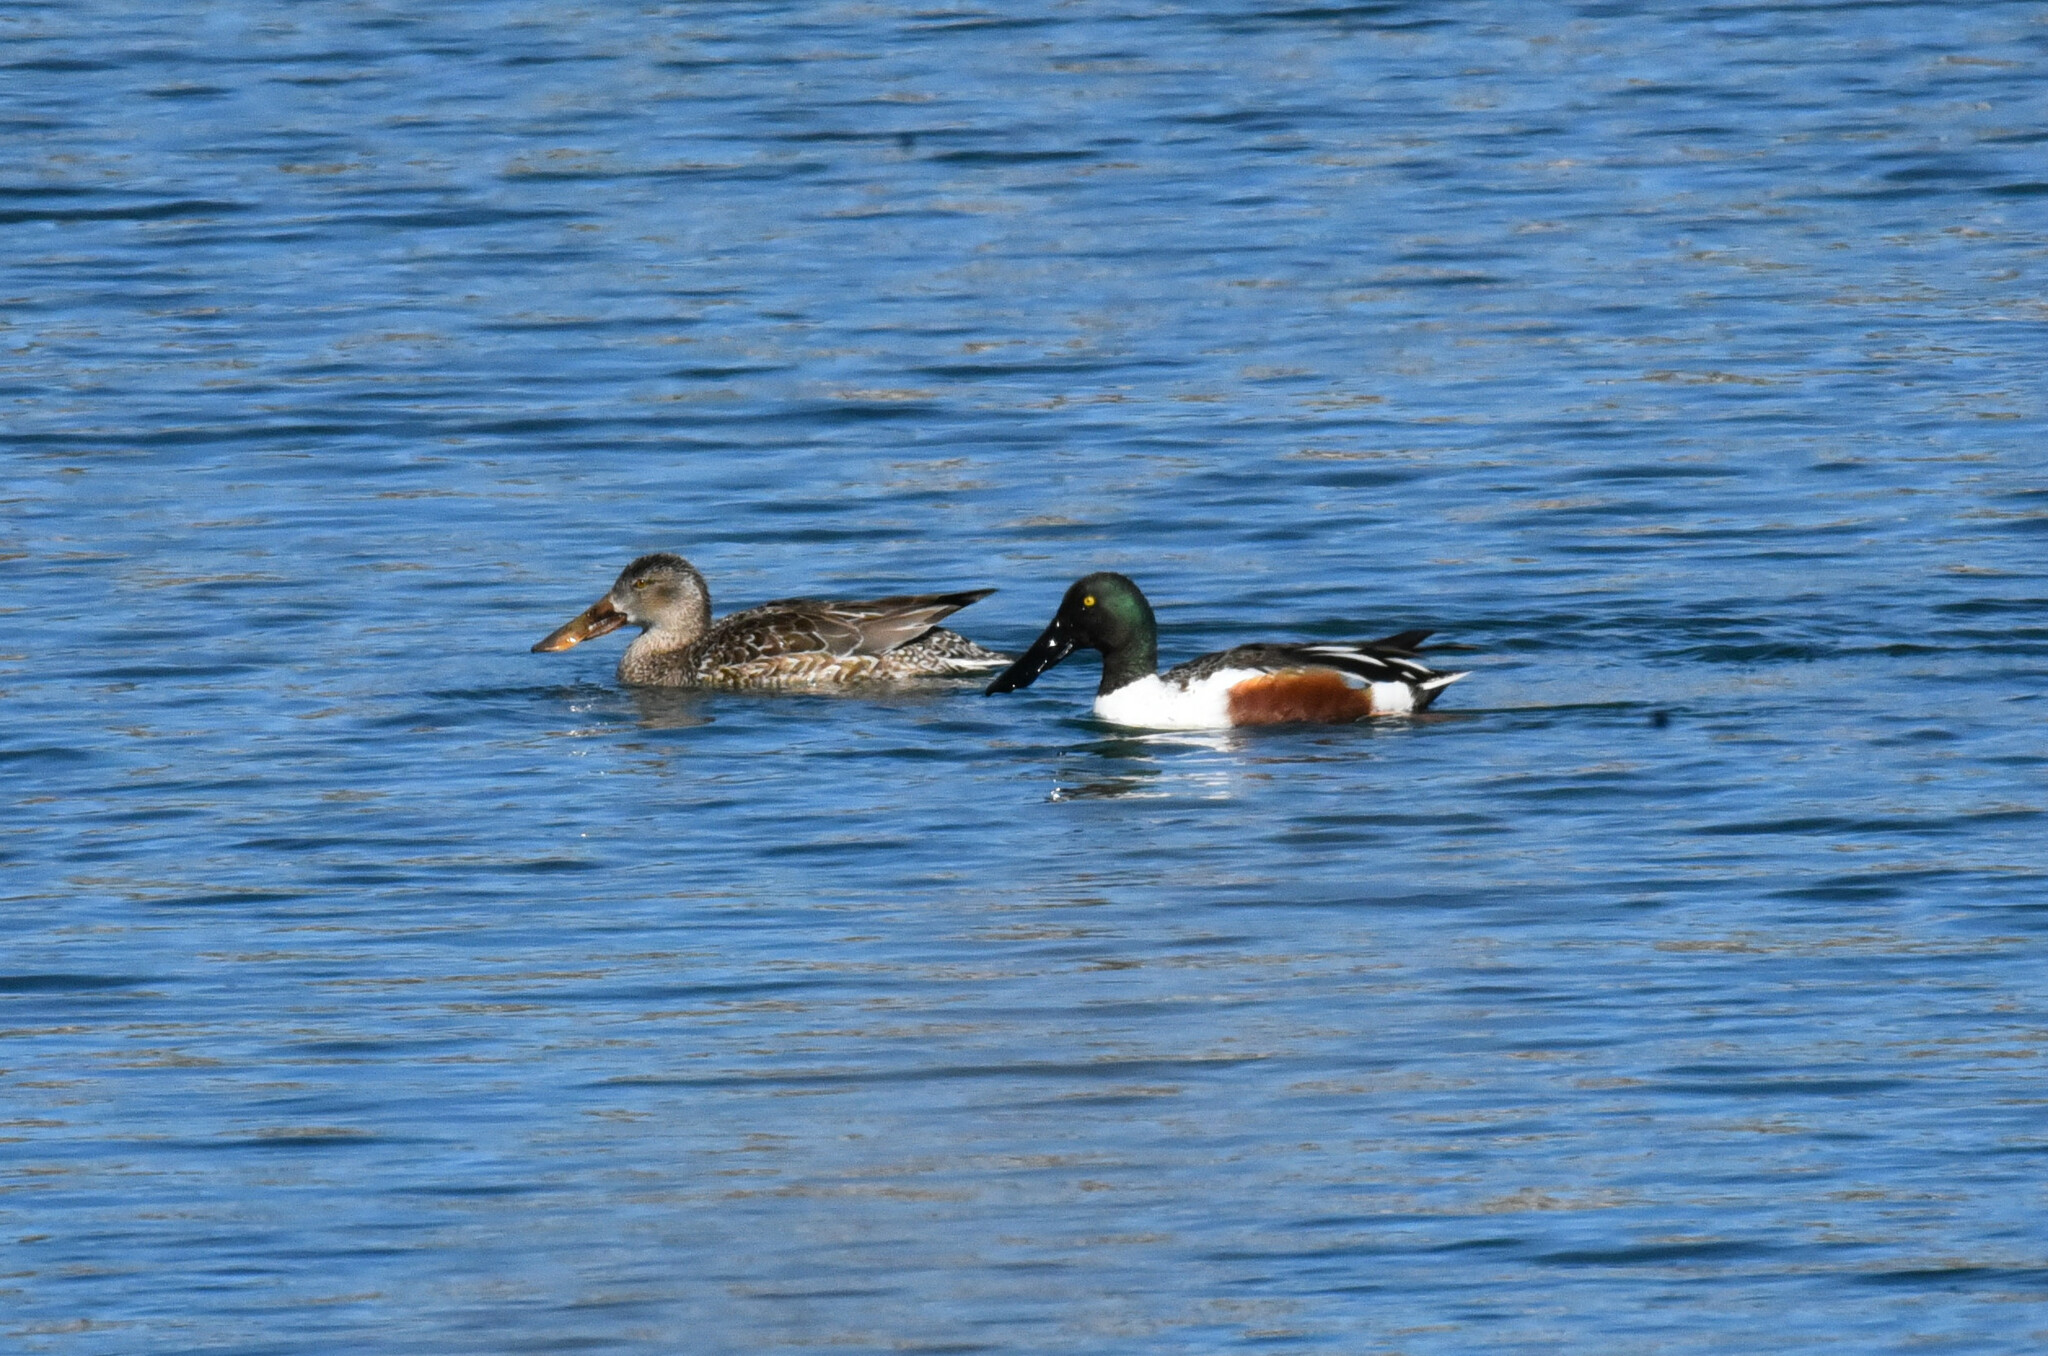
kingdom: Animalia
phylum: Chordata
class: Aves
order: Anseriformes
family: Anatidae
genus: Spatula
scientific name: Spatula clypeata
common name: Northern shoveler
